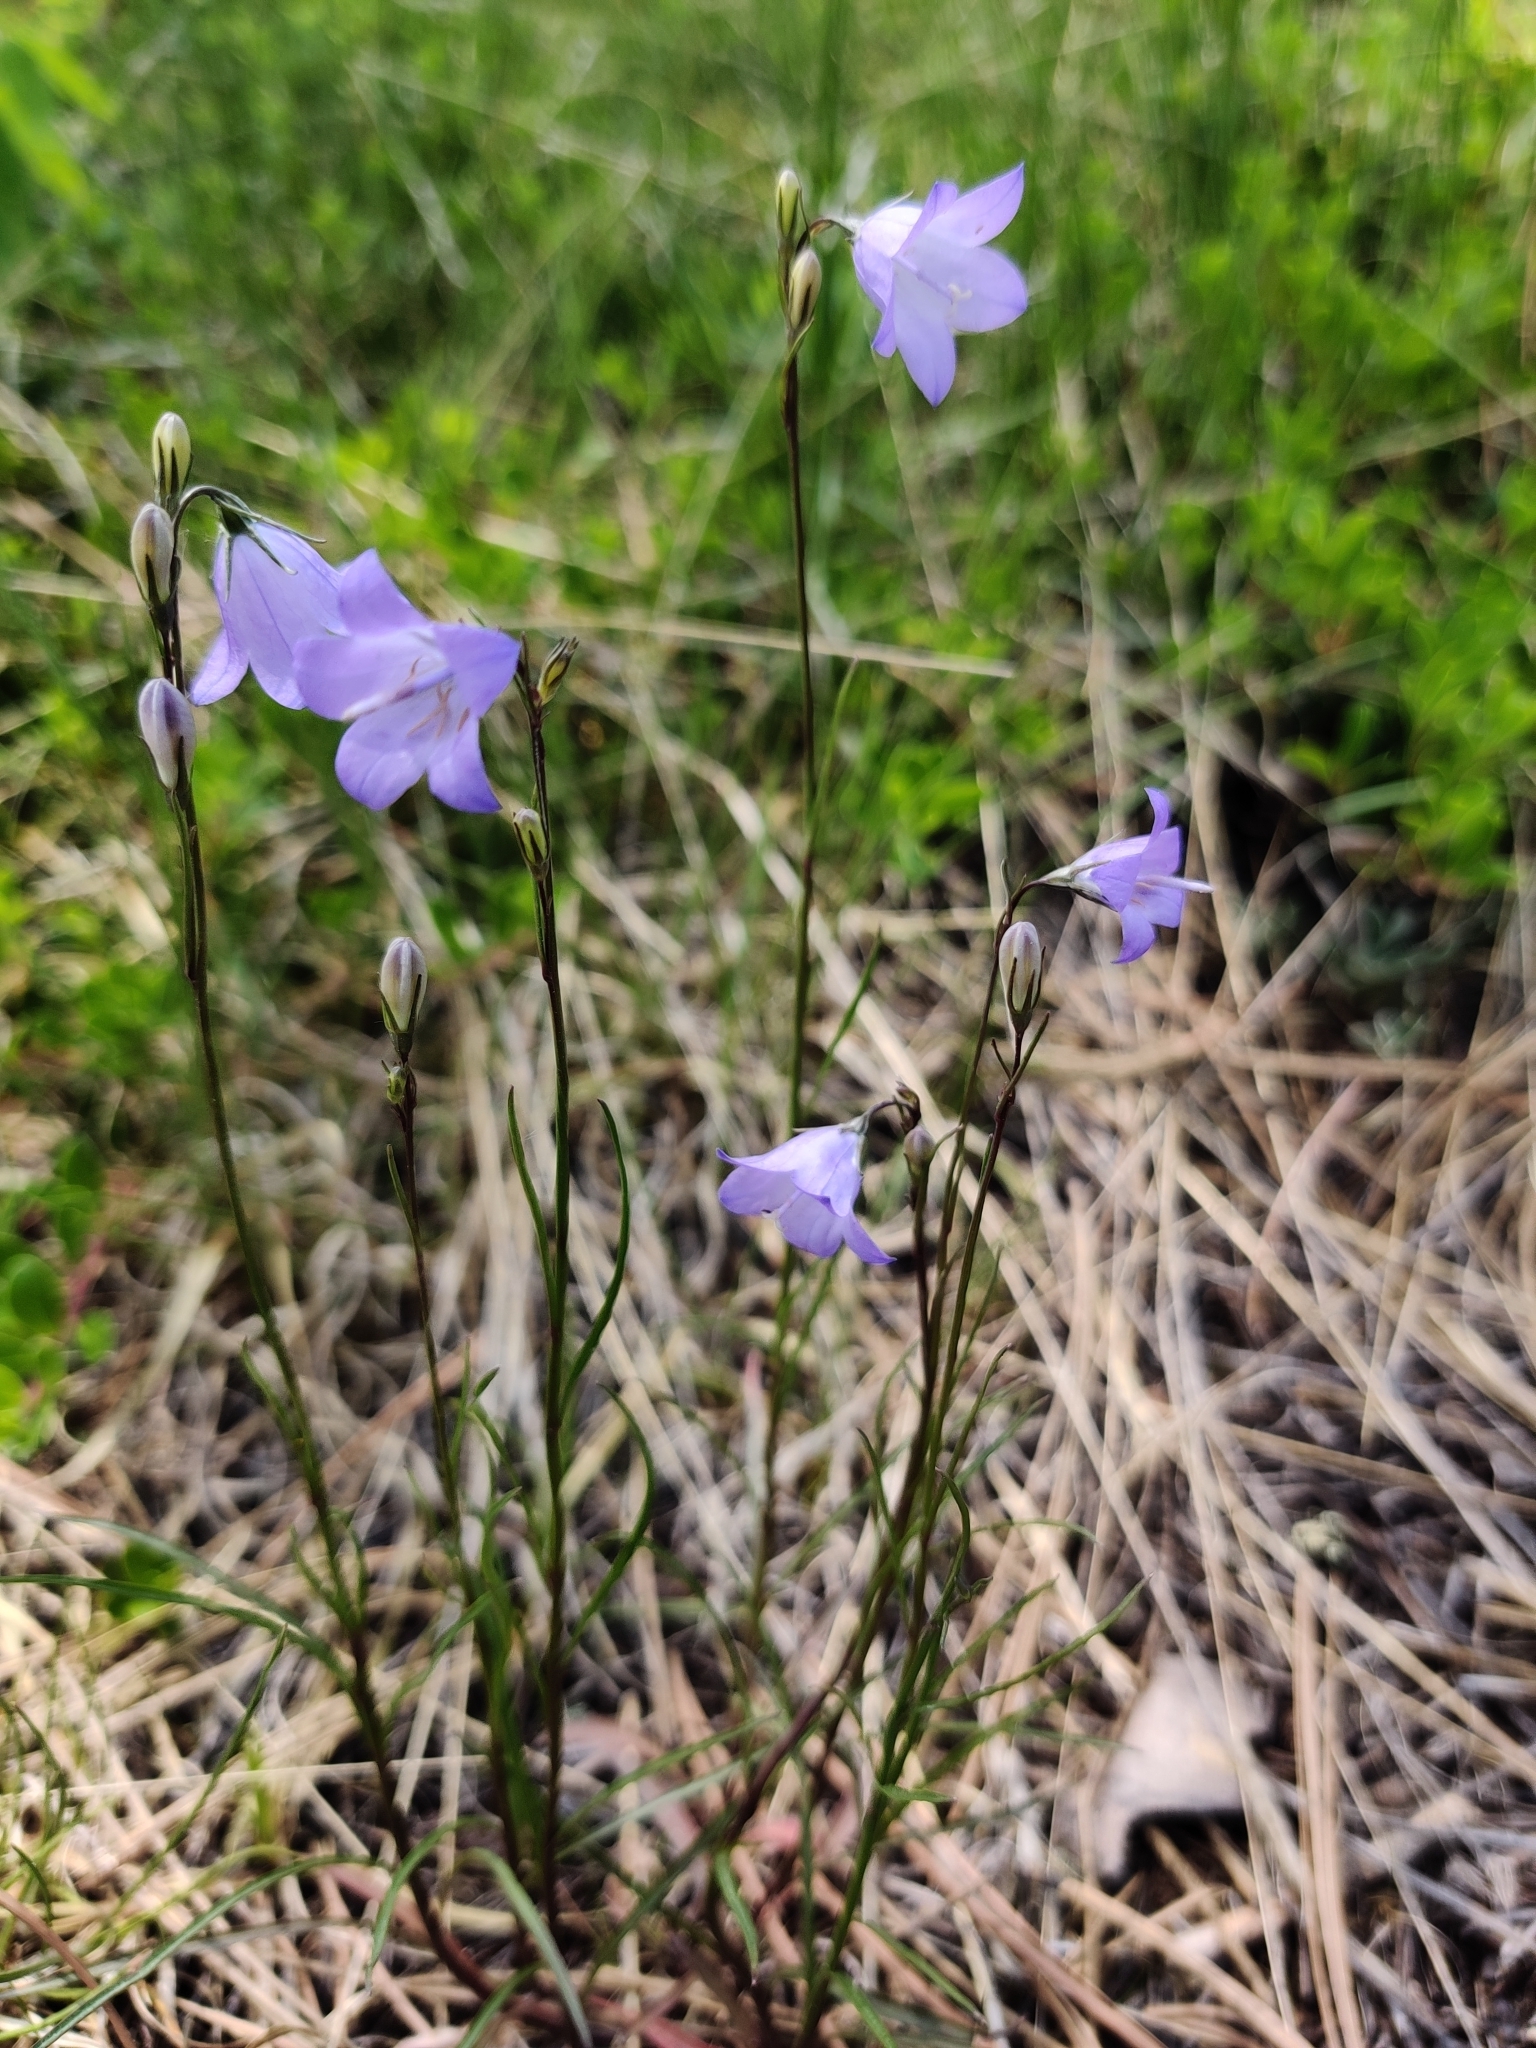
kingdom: Plantae
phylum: Tracheophyta
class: Magnoliopsida
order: Asterales
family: Campanulaceae
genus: Campanula
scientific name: Campanula petiolata
